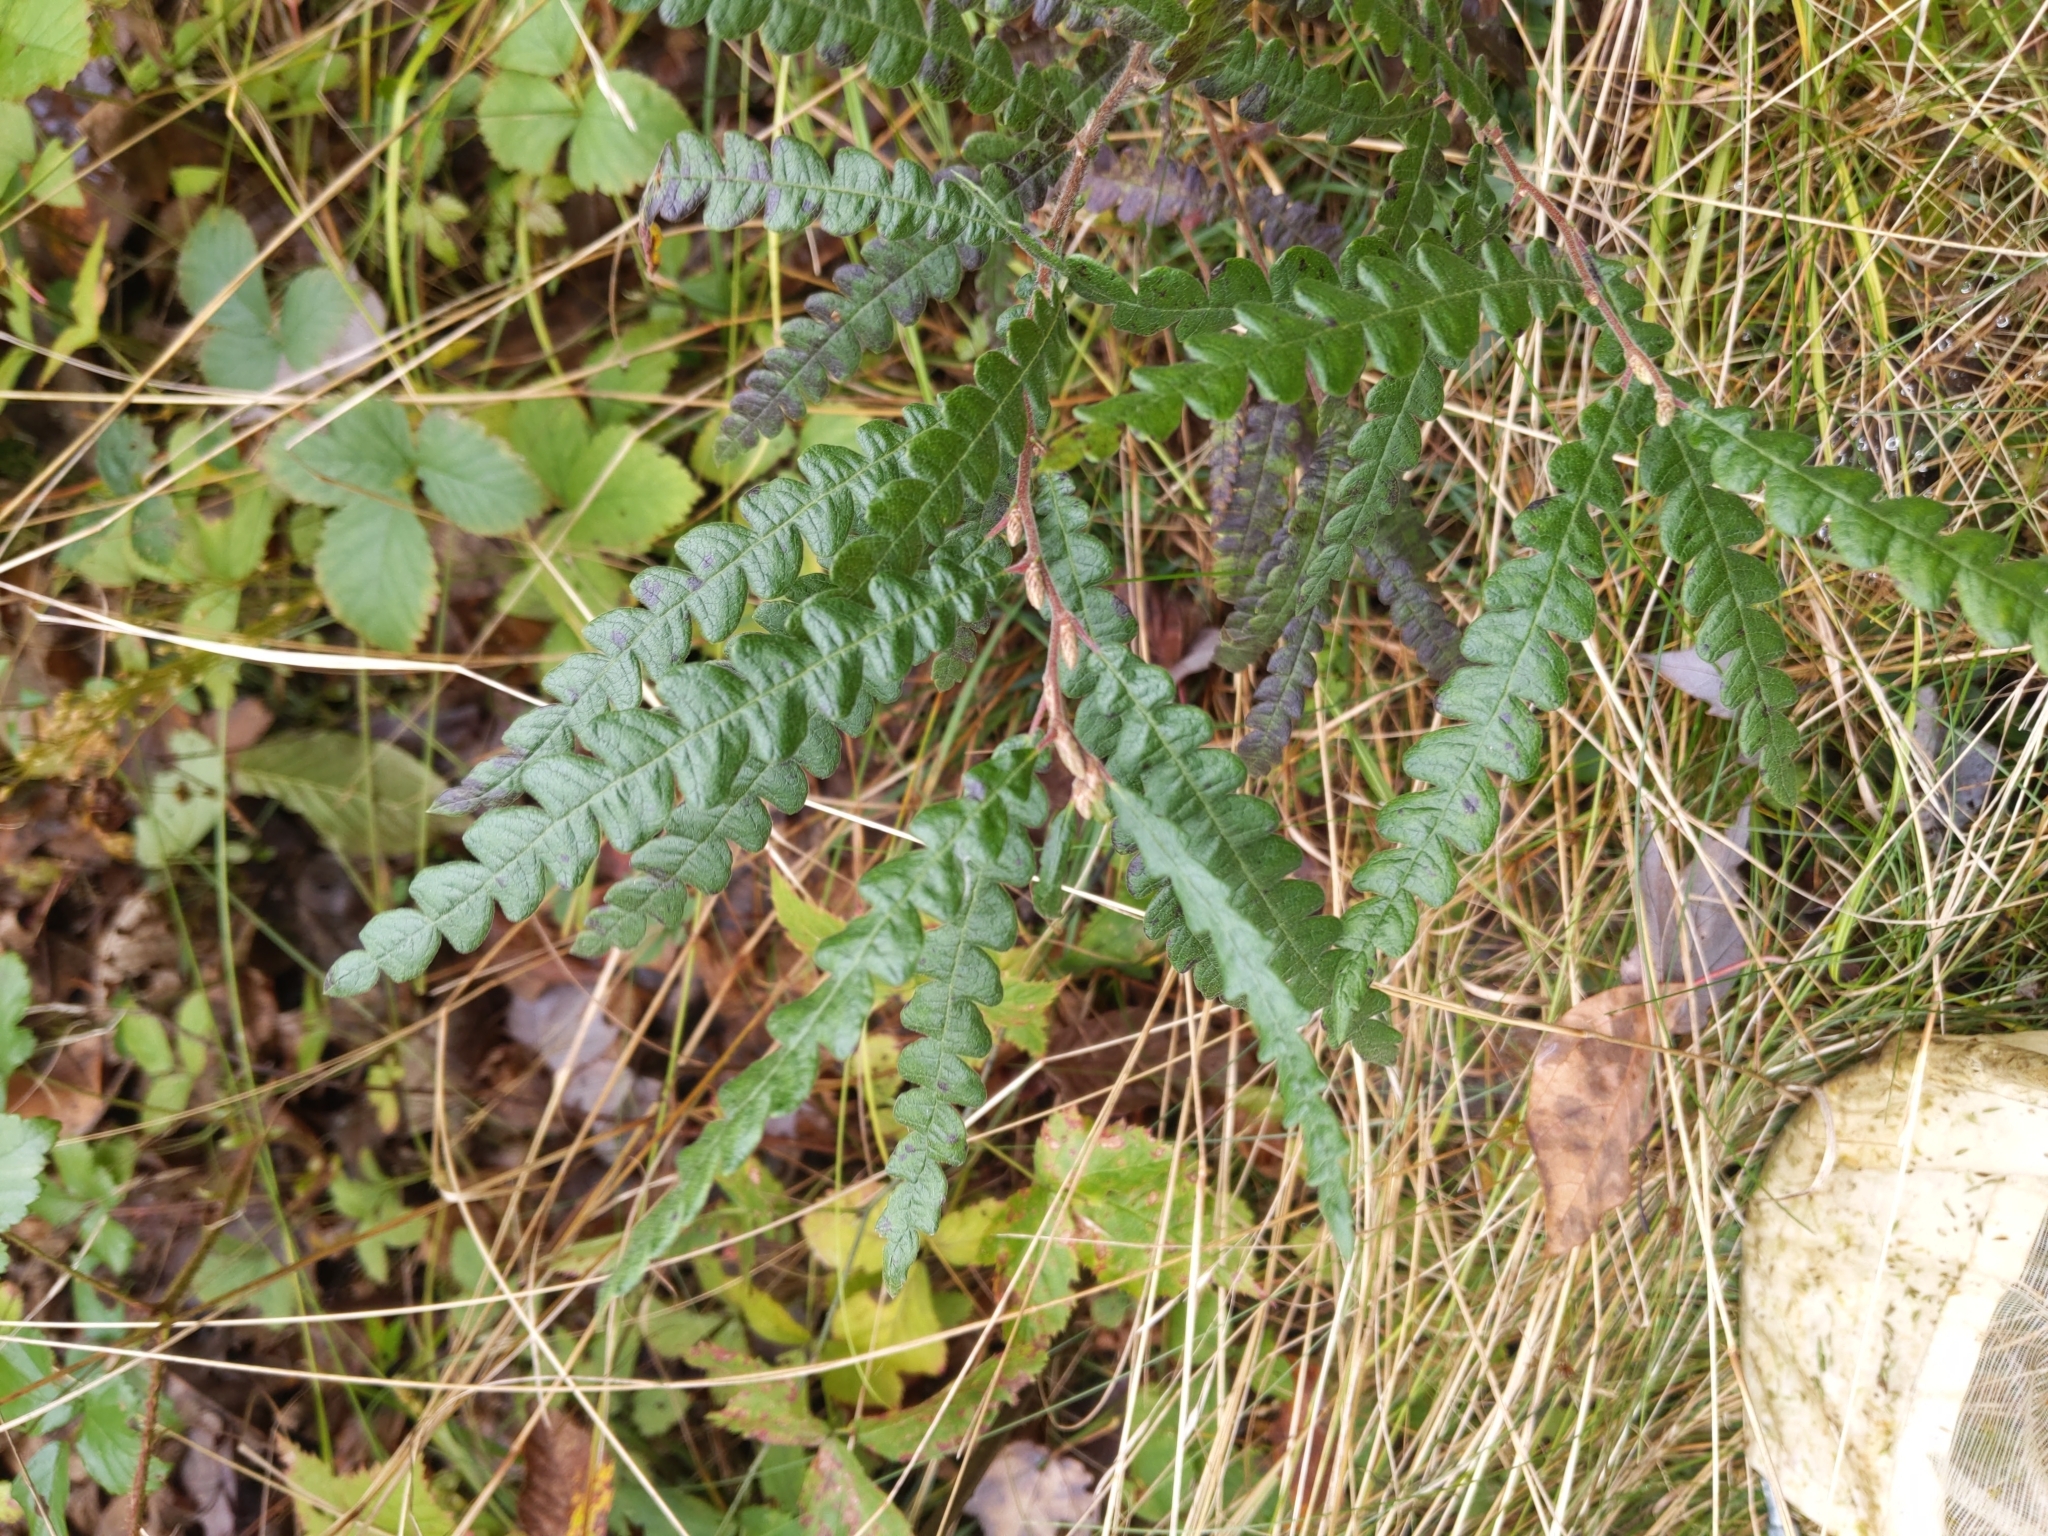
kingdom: Plantae
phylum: Tracheophyta
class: Magnoliopsida
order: Fagales
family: Myricaceae
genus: Comptonia
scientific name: Comptonia peregrina
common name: Sweet-fern
